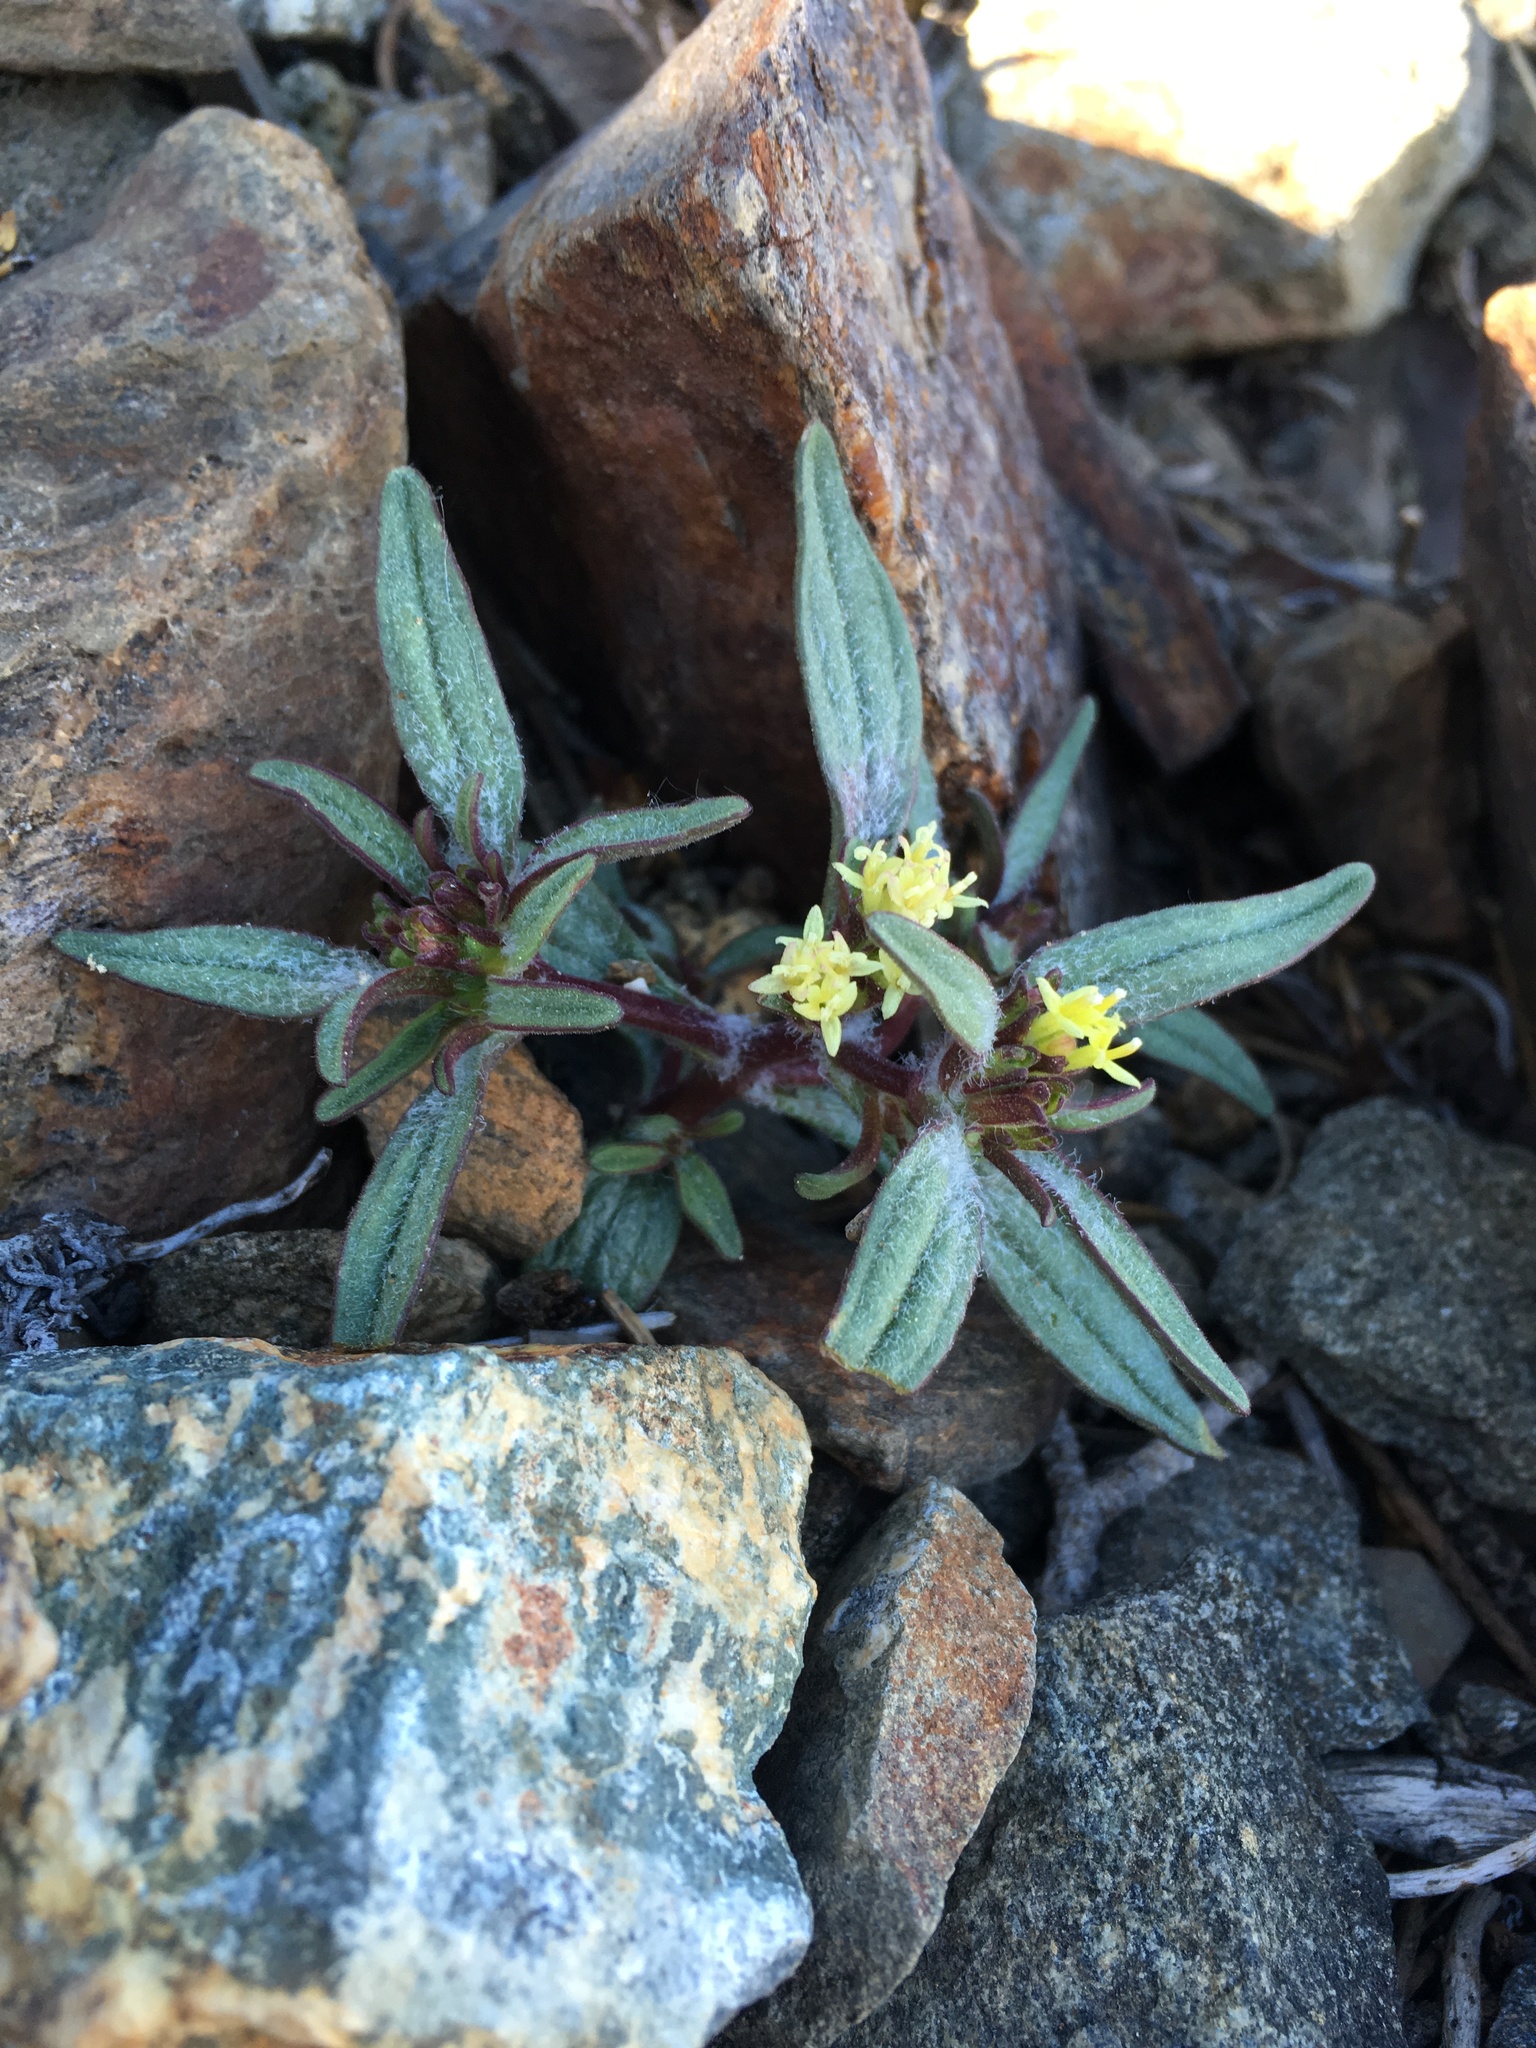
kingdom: Plantae
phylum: Tracheophyta
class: Magnoliopsida
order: Asterales
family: Asteraceae
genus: Orochaenactis
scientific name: Orochaenactis thysanocarpha
